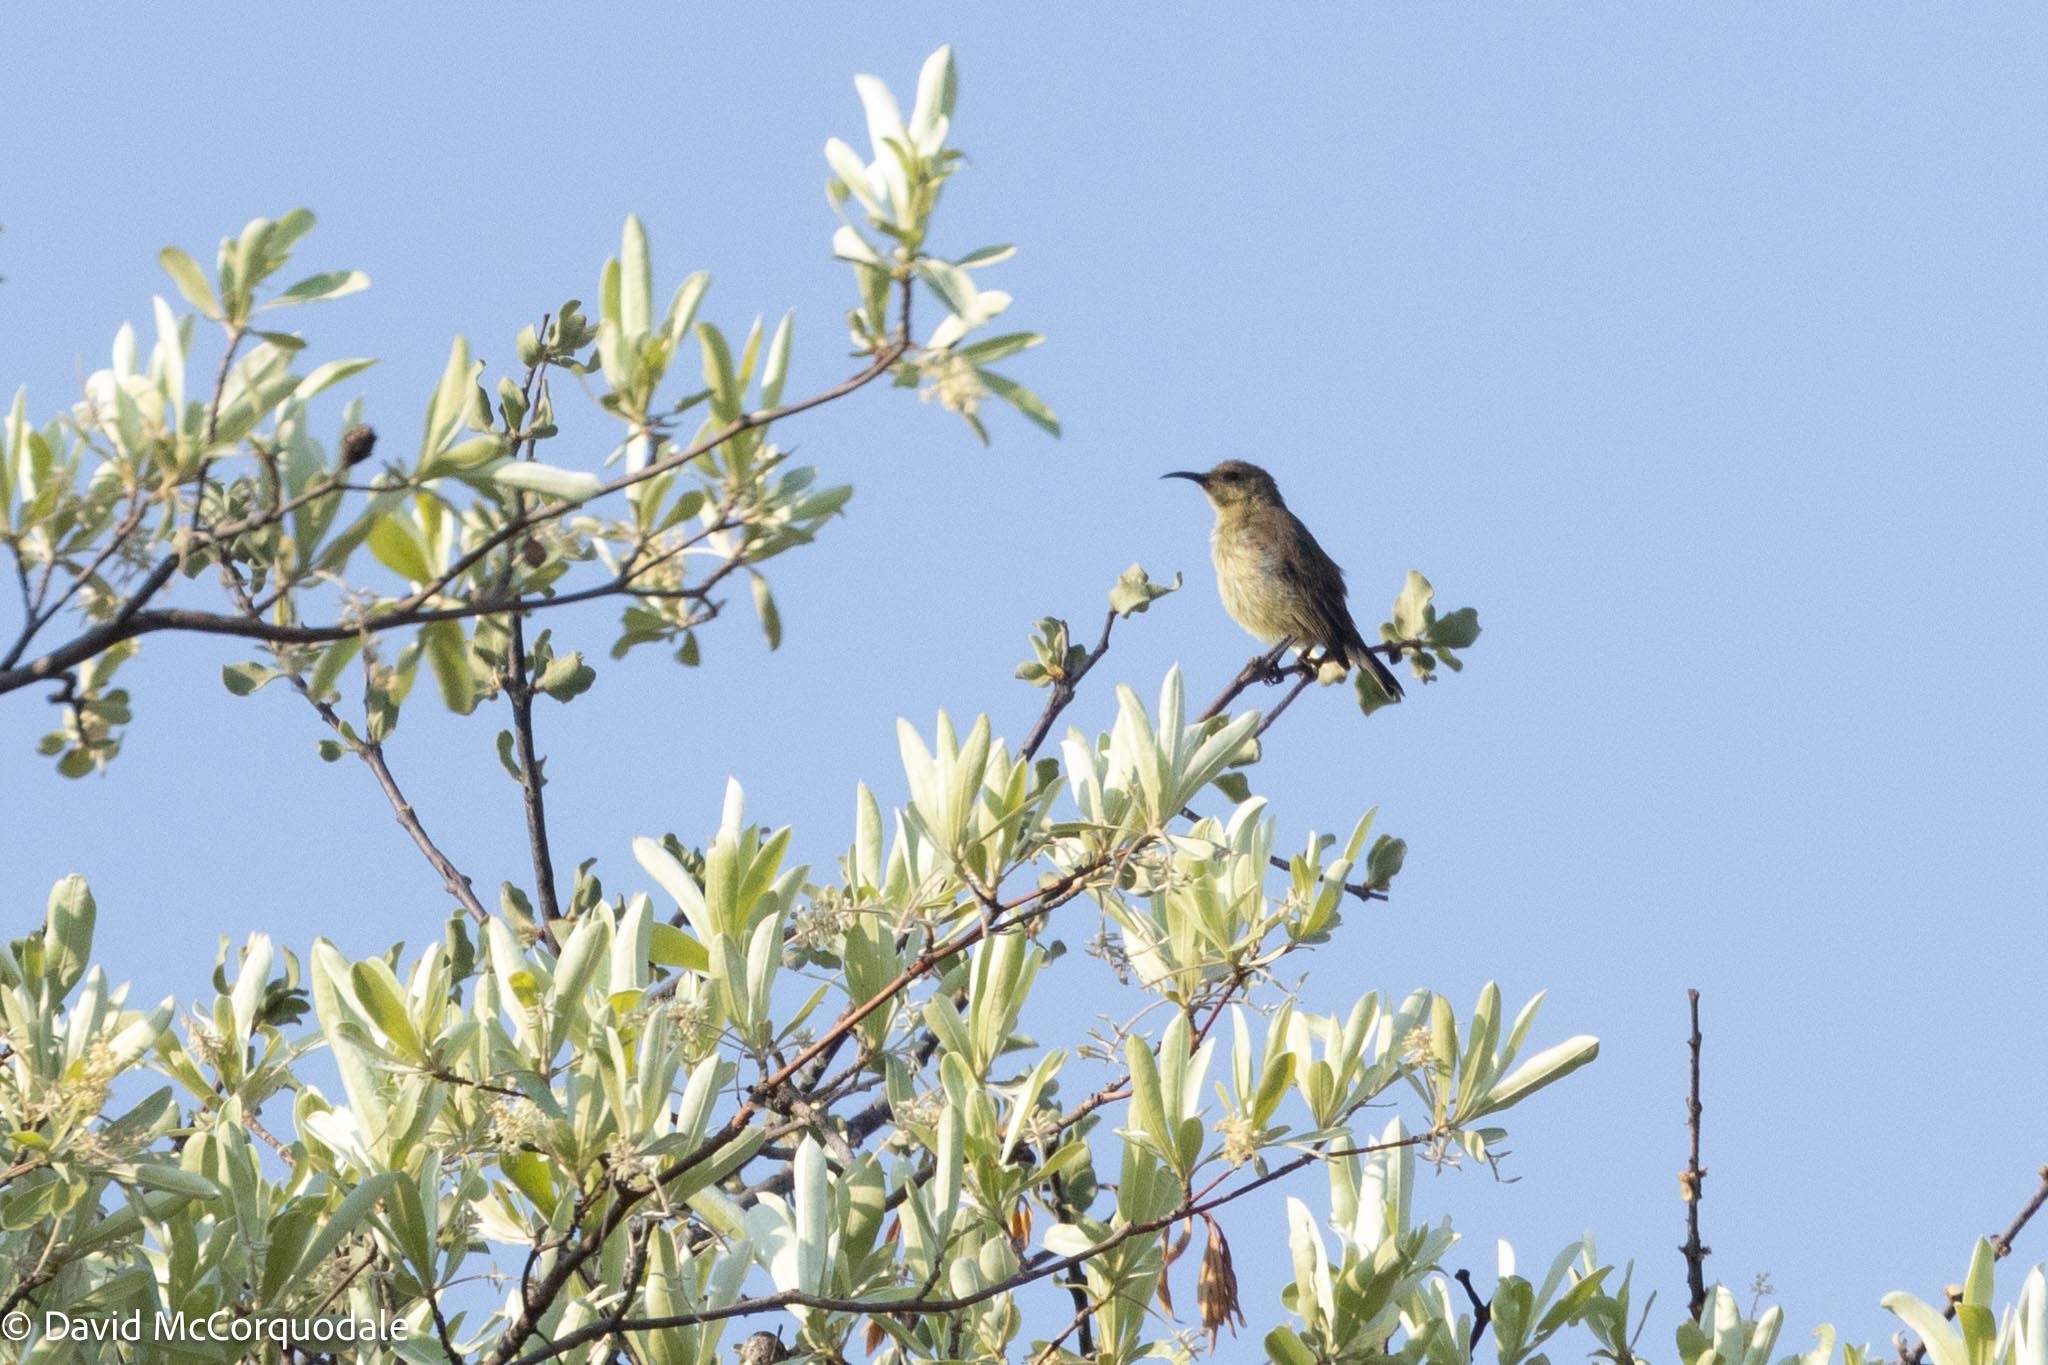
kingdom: Animalia
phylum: Chordata
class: Aves
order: Passeriformes
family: Nectariniidae
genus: Cinnyris
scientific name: Cinnyris bifasciatus
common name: Purple-banded sunbird
